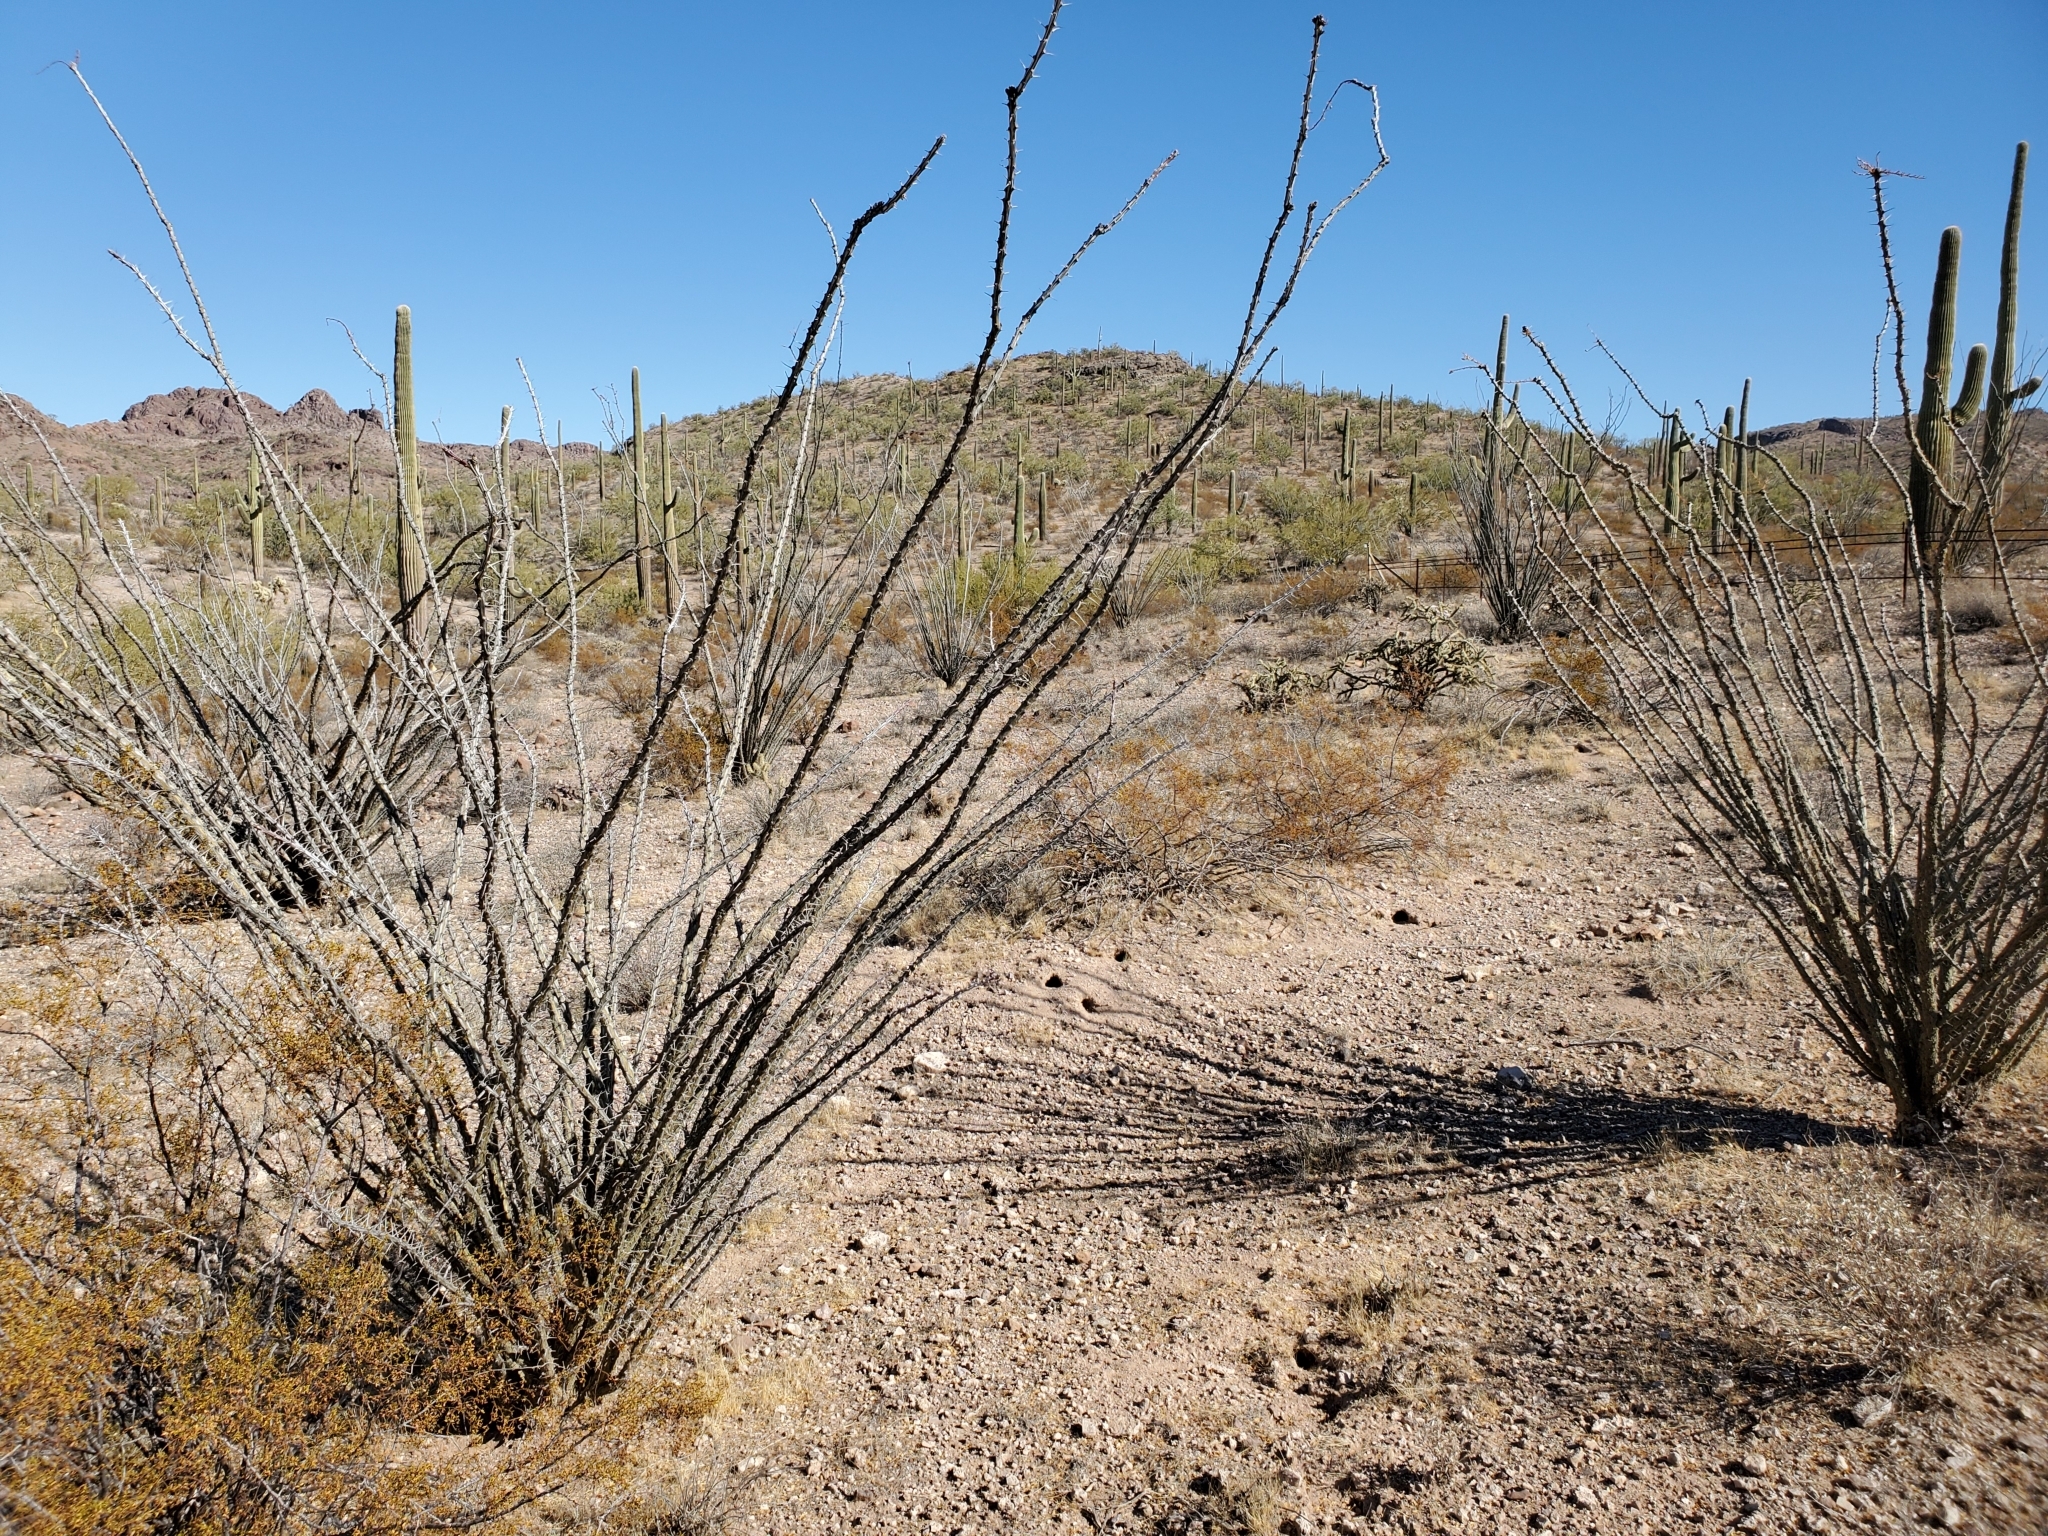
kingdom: Plantae
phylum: Tracheophyta
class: Magnoliopsida
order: Ericales
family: Fouquieriaceae
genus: Fouquieria
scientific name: Fouquieria splendens
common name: Vine-cactus
